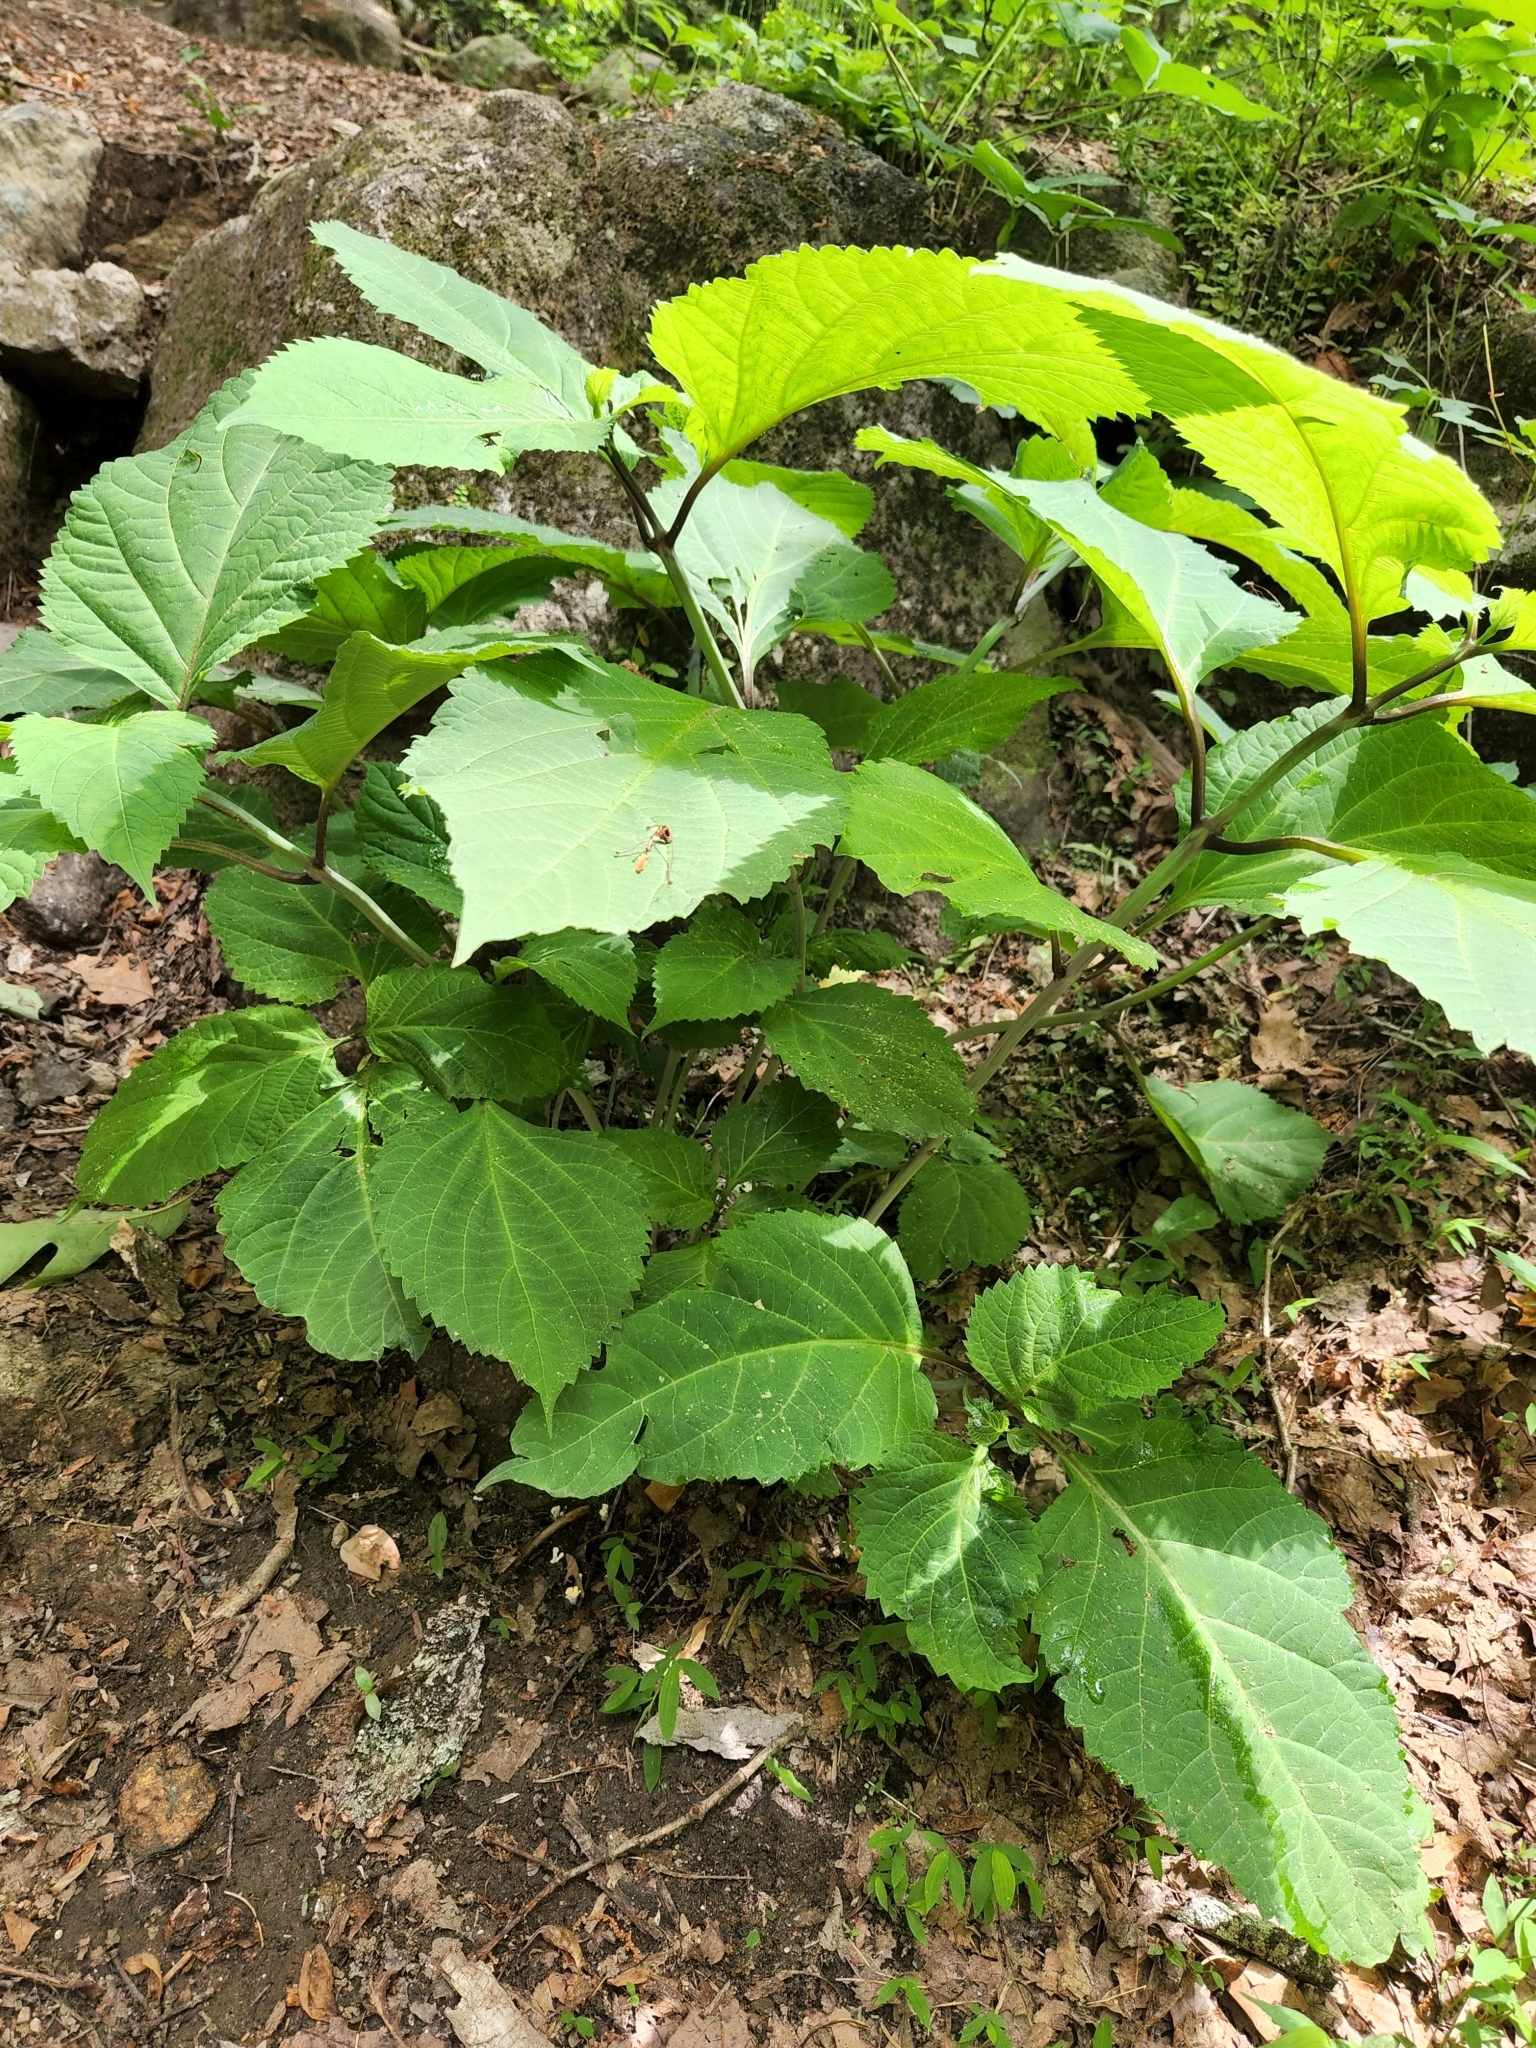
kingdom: Plantae
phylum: Tracheophyta
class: Magnoliopsida
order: Lamiales
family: Lamiaceae
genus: Collinsonia
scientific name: Collinsonia canadensis
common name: Northern horsebalm
